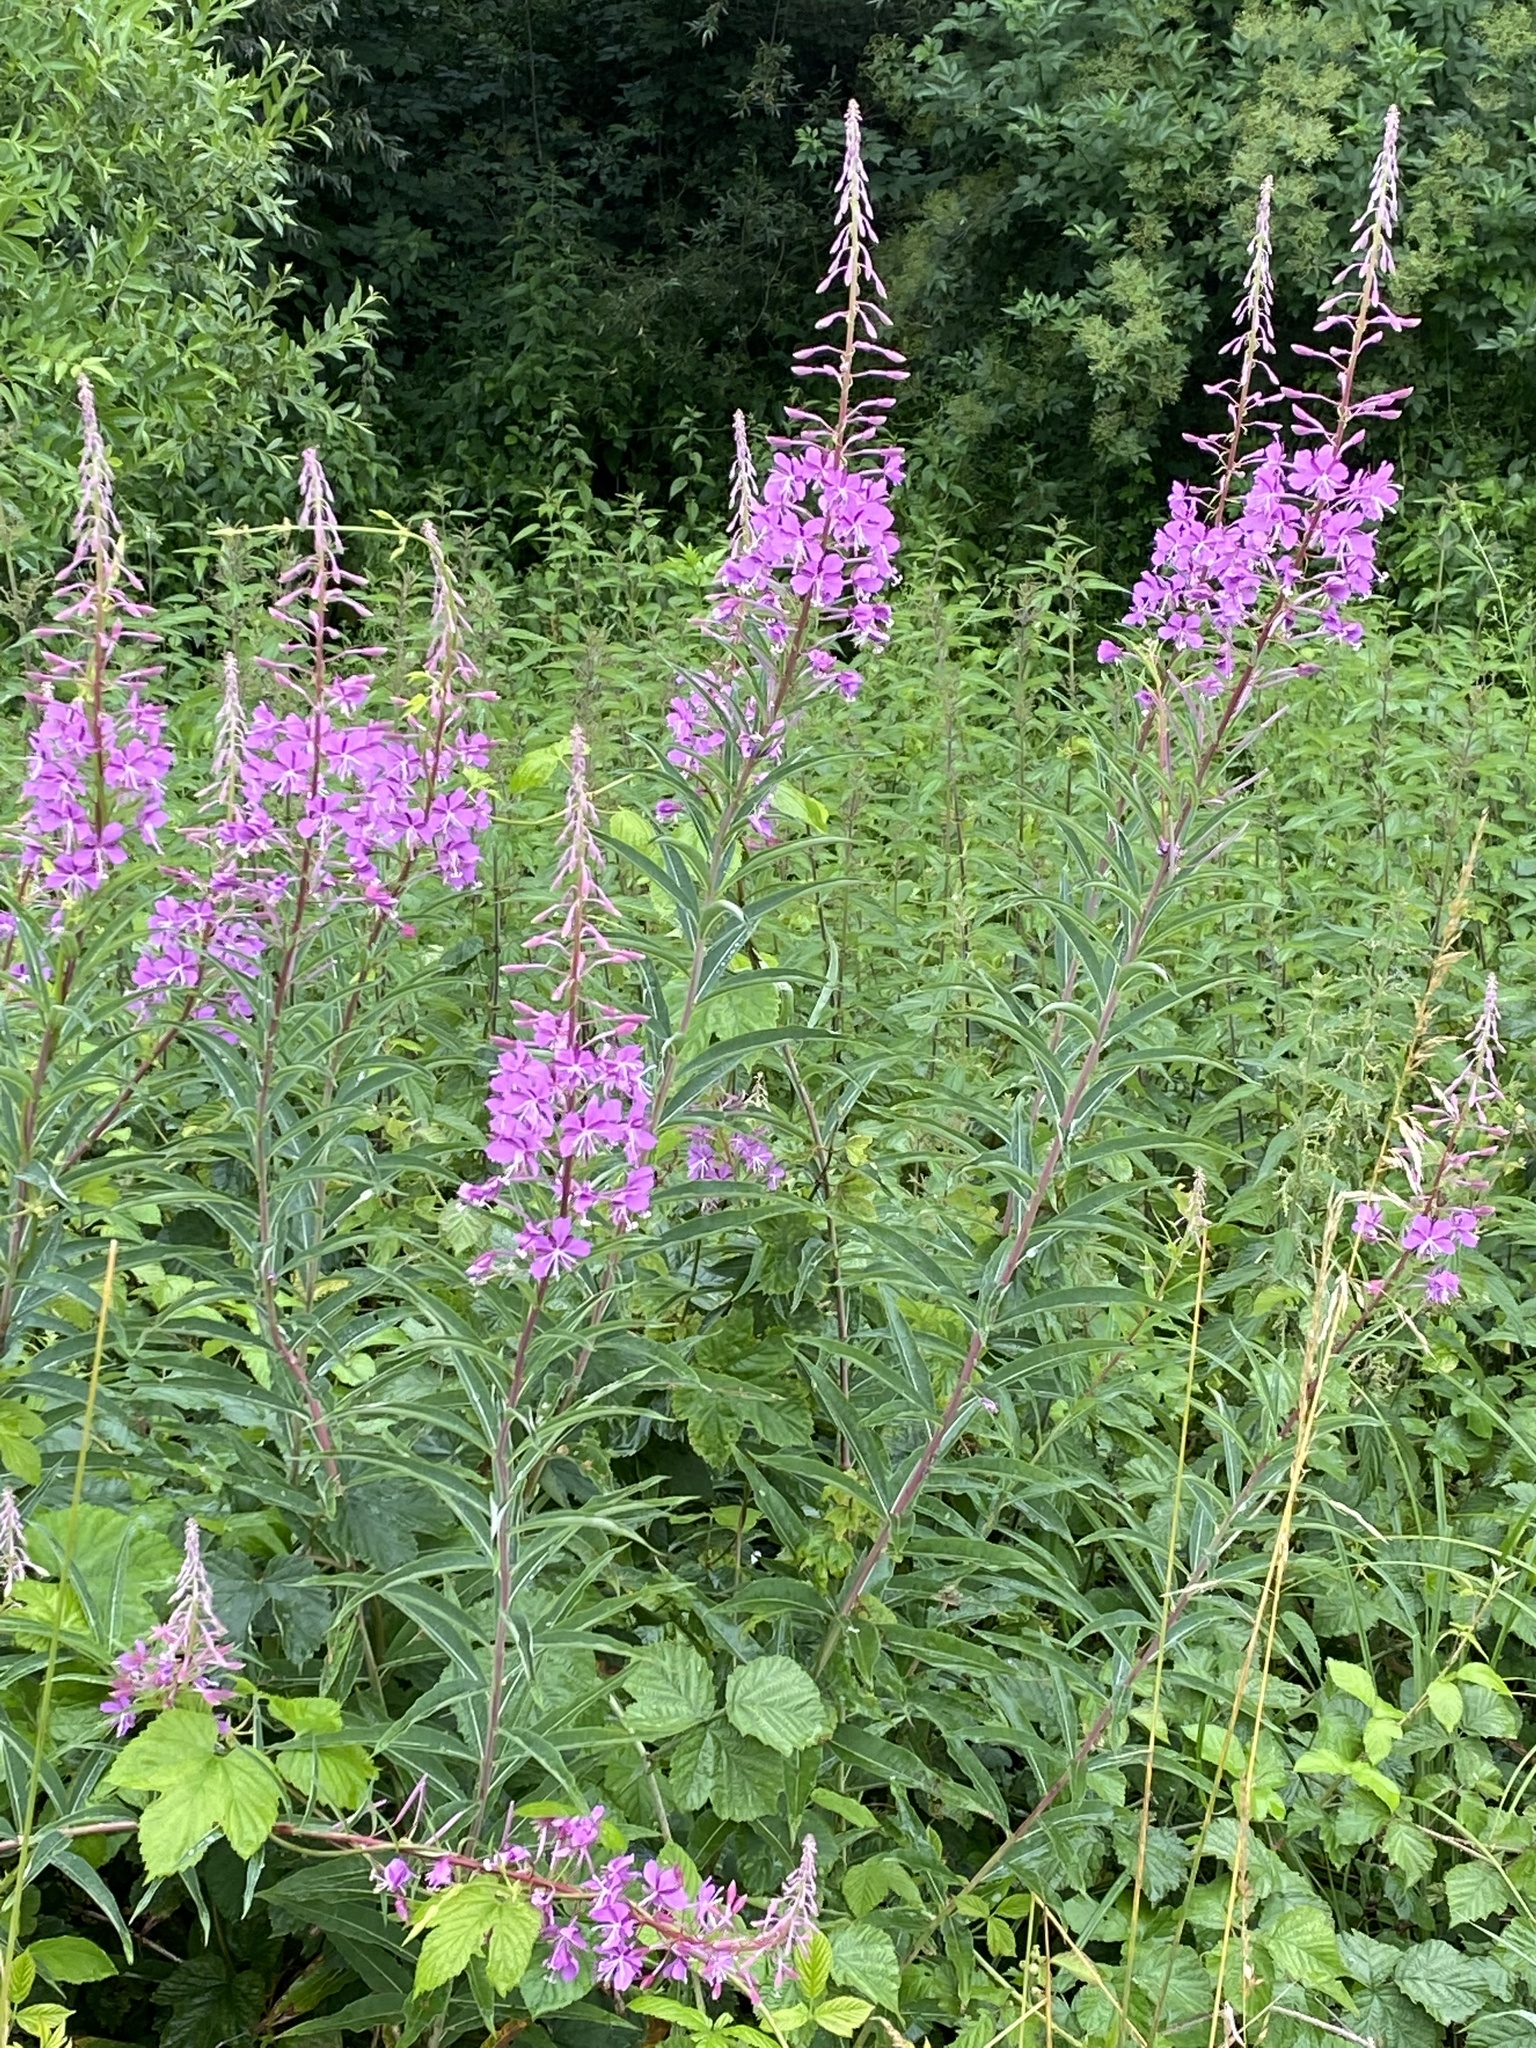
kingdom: Plantae
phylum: Tracheophyta
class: Magnoliopsida
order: Myrtales
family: Onagraceae
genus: Chamaenerion
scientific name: Chamaenerion angustifolium
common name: Fireweed
